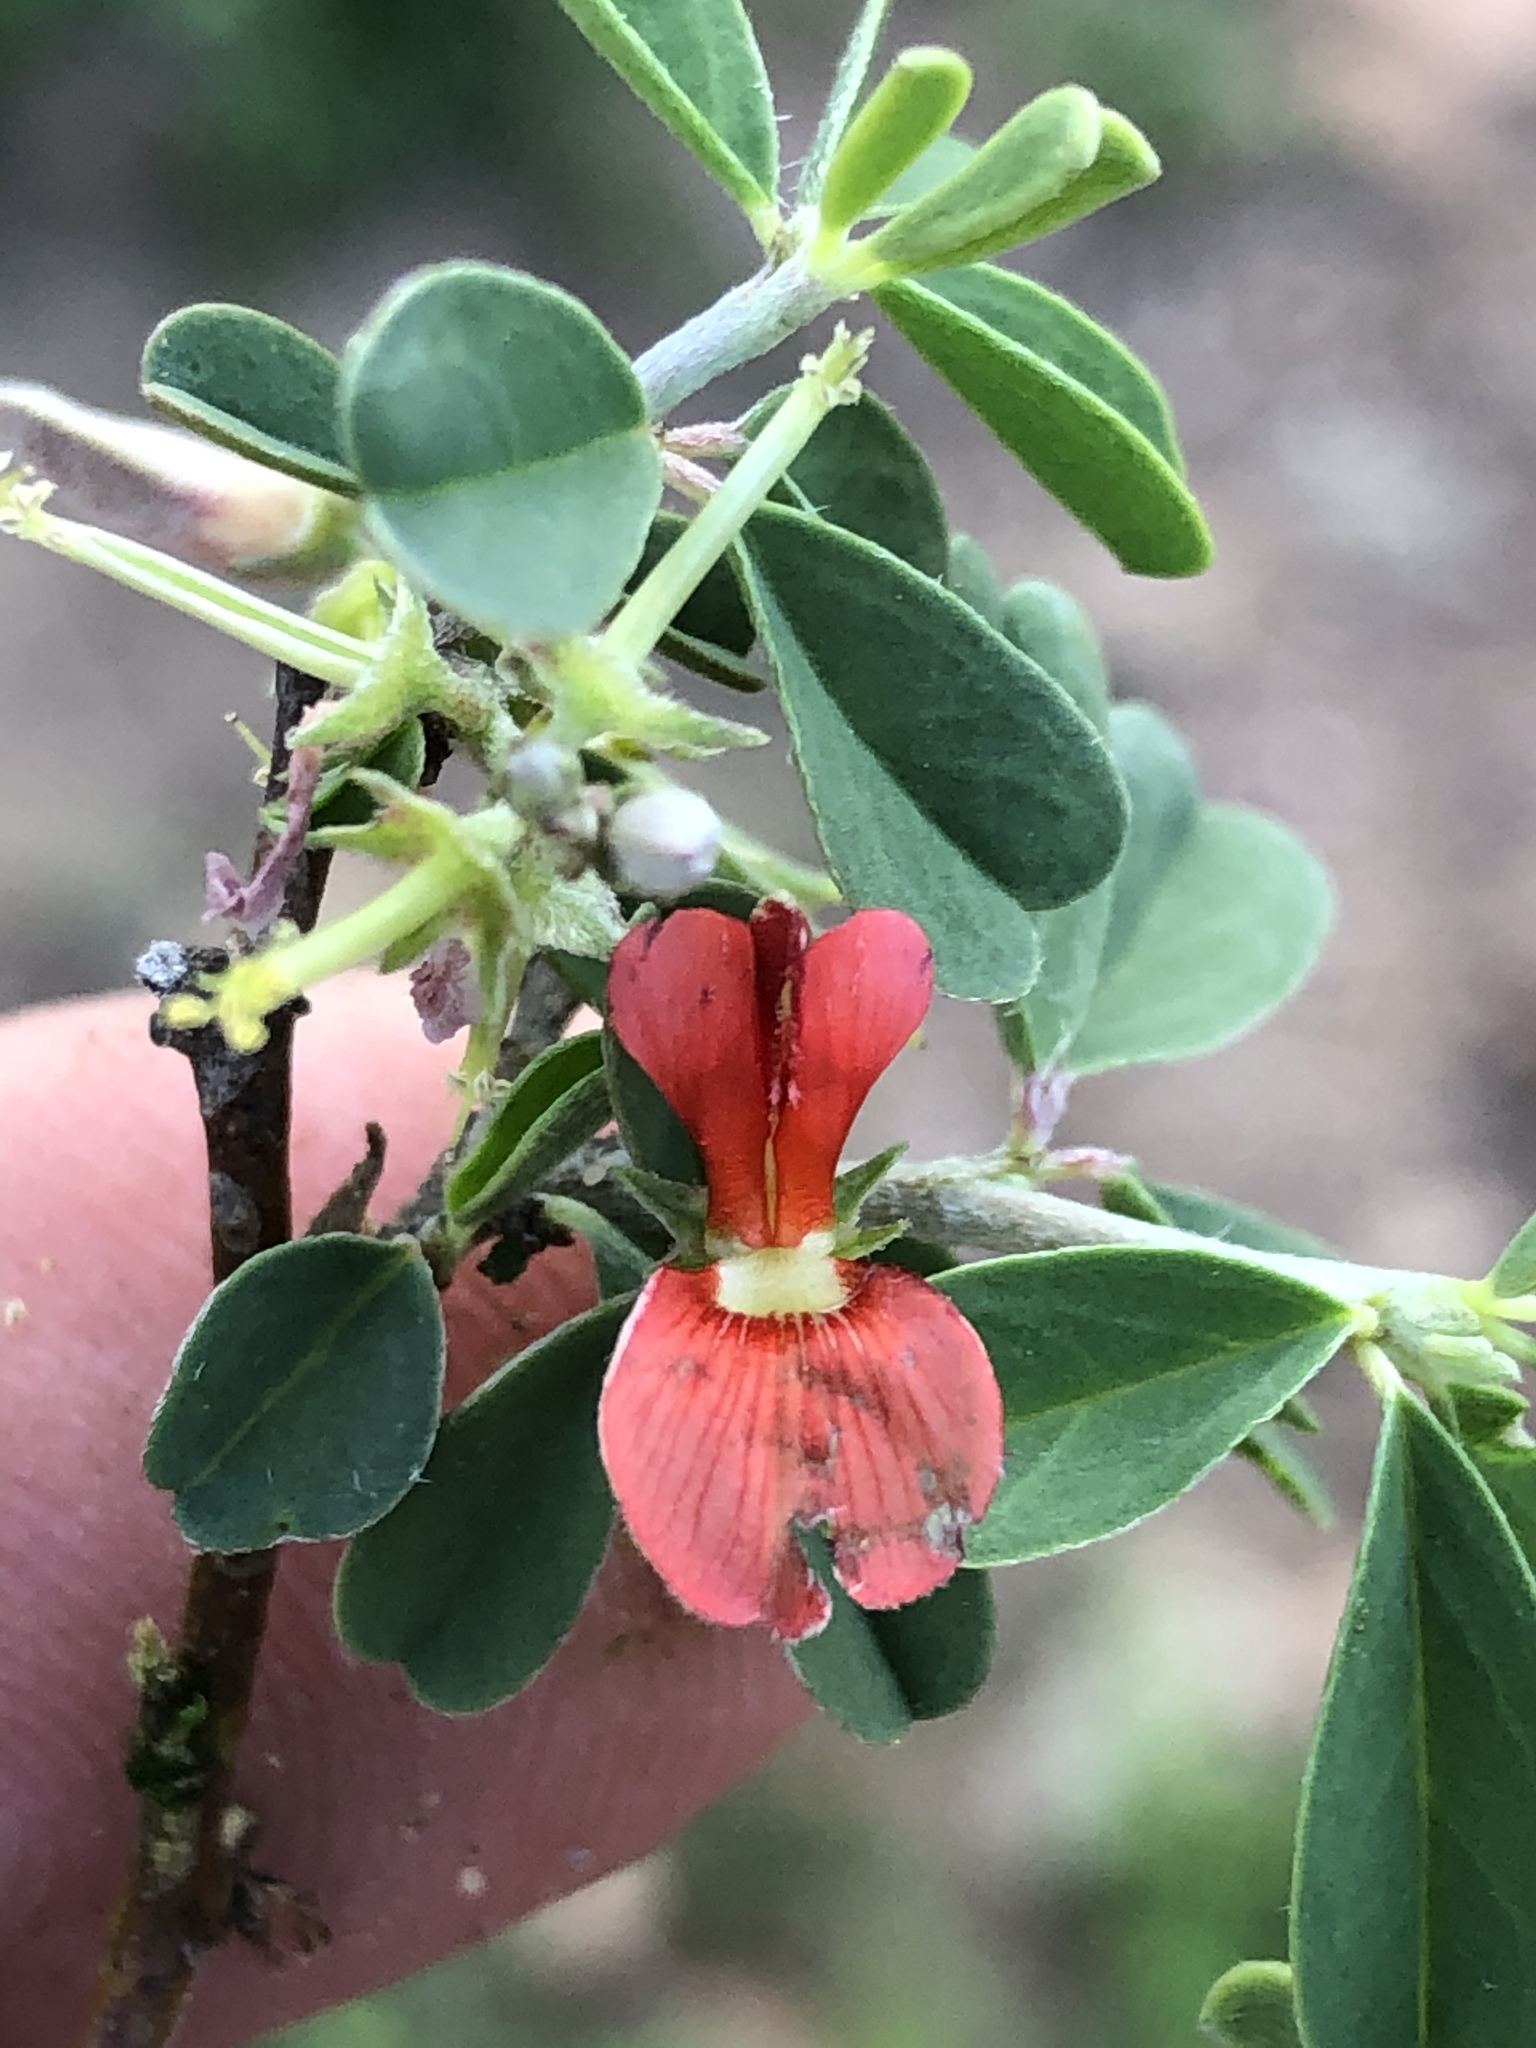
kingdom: Plantae
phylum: Tracheophyta
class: Magnoliopsida
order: Fabales
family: Fabaceae
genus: Indigofera
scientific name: Indigofera sessilifolia
